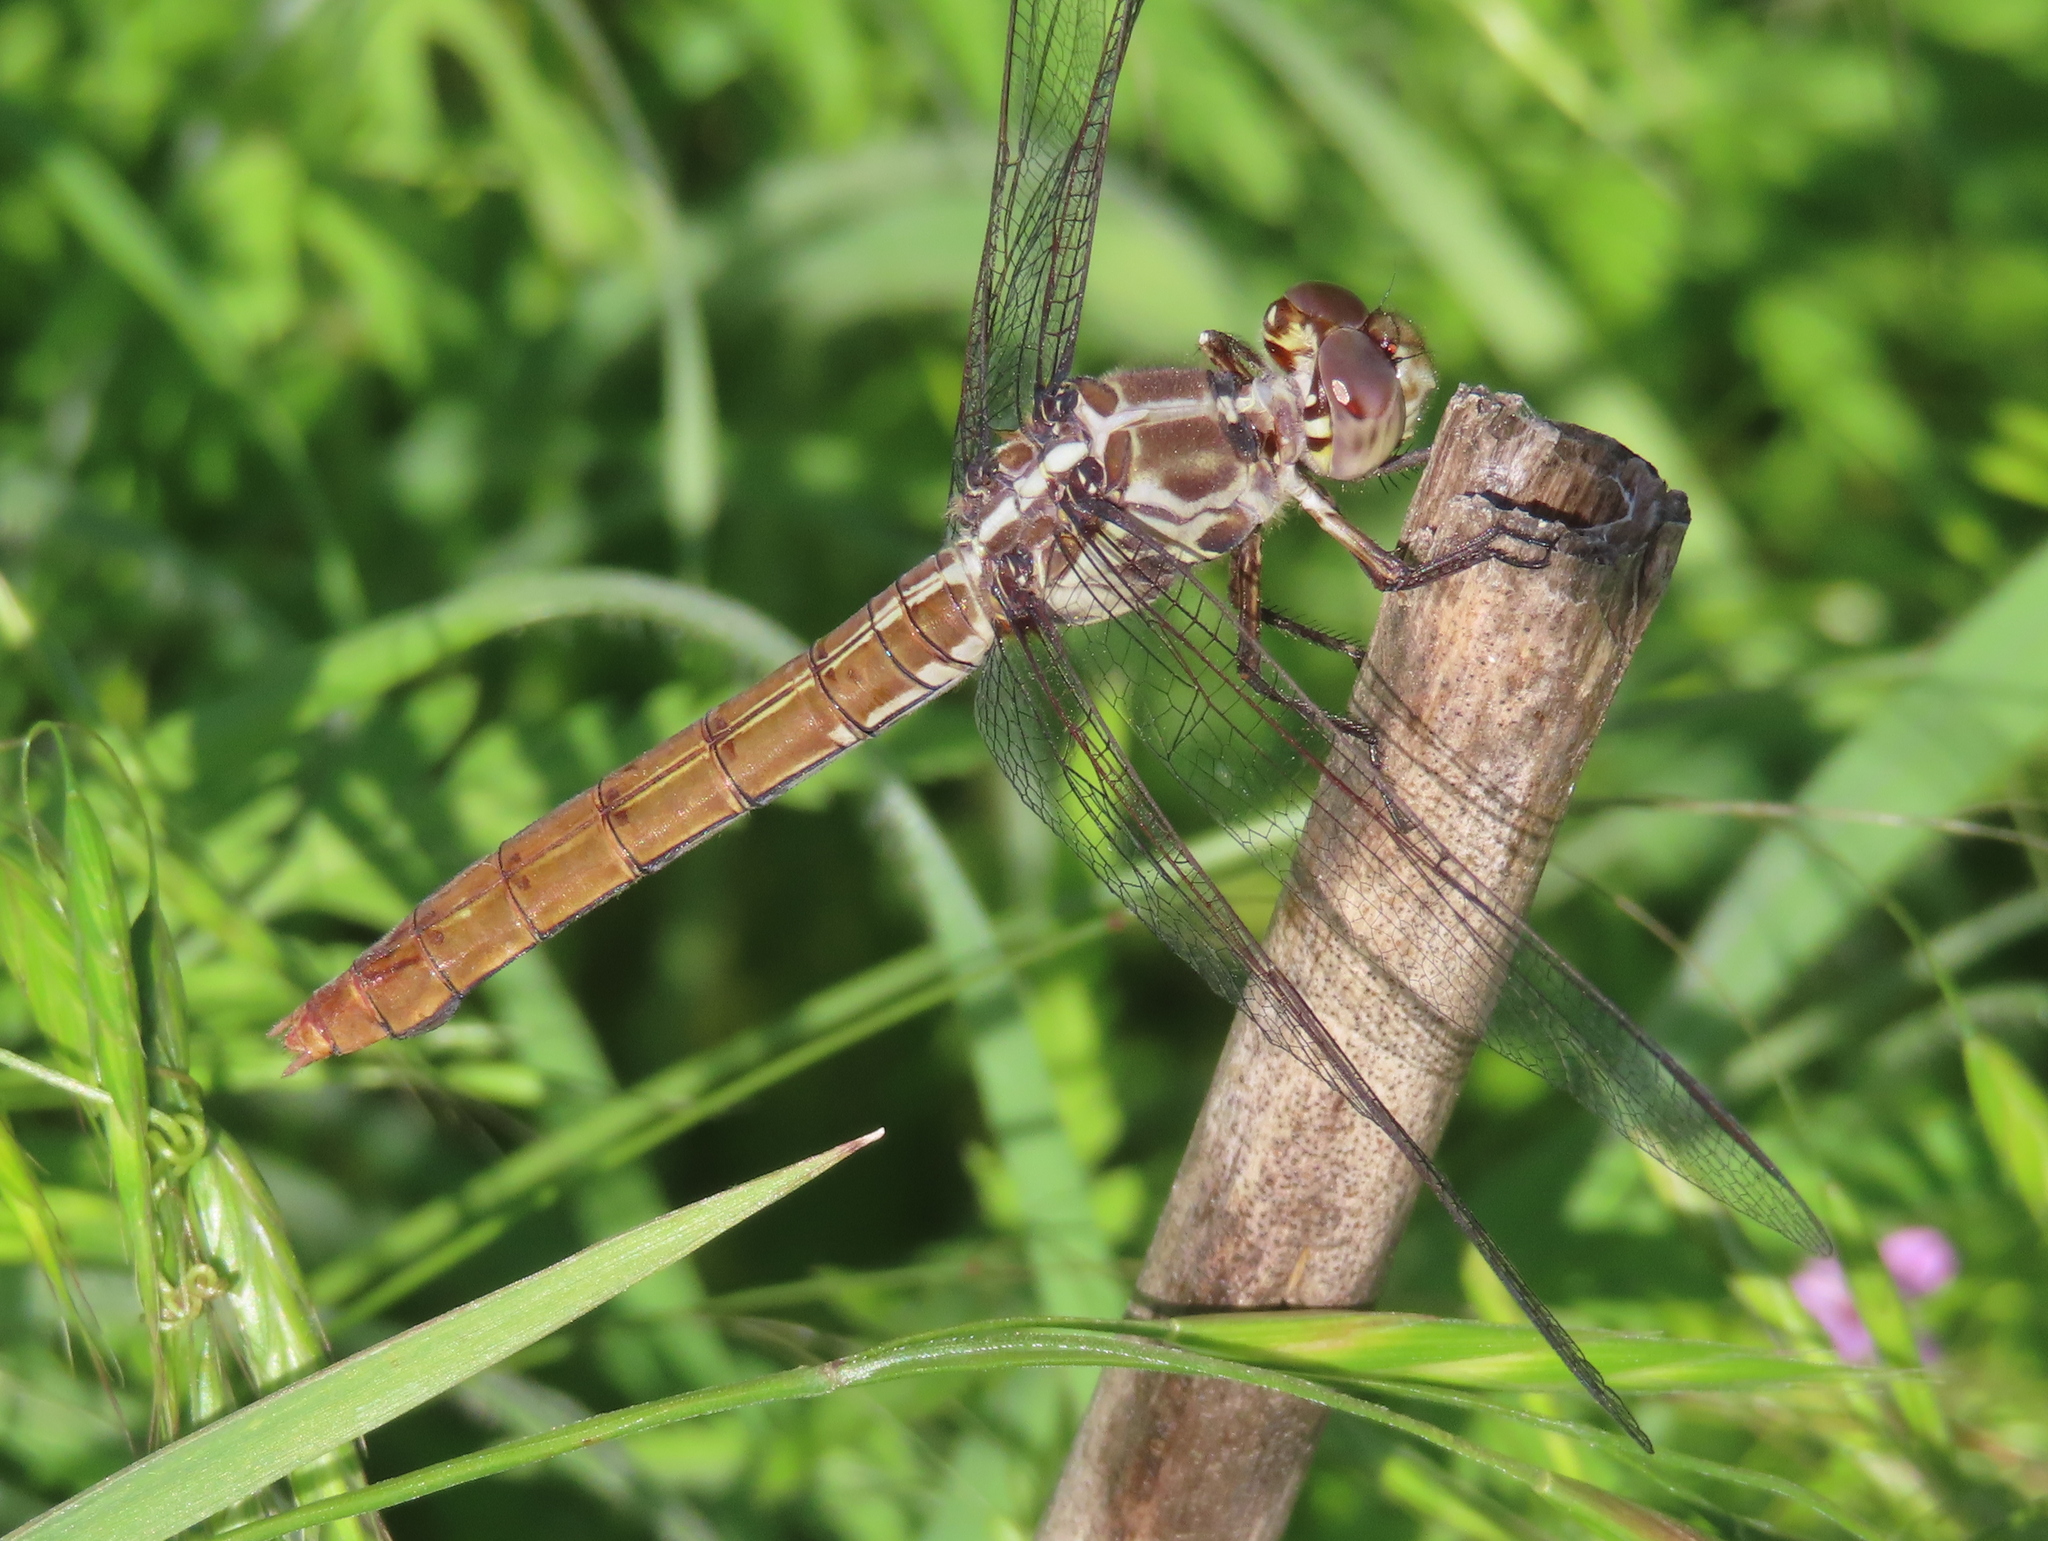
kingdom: Animalia
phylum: Arthropoda
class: Insecta
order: Odonata
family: Libellulidae
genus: Orthemis
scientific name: Orthemis ferruginea
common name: Roseate skimmer
